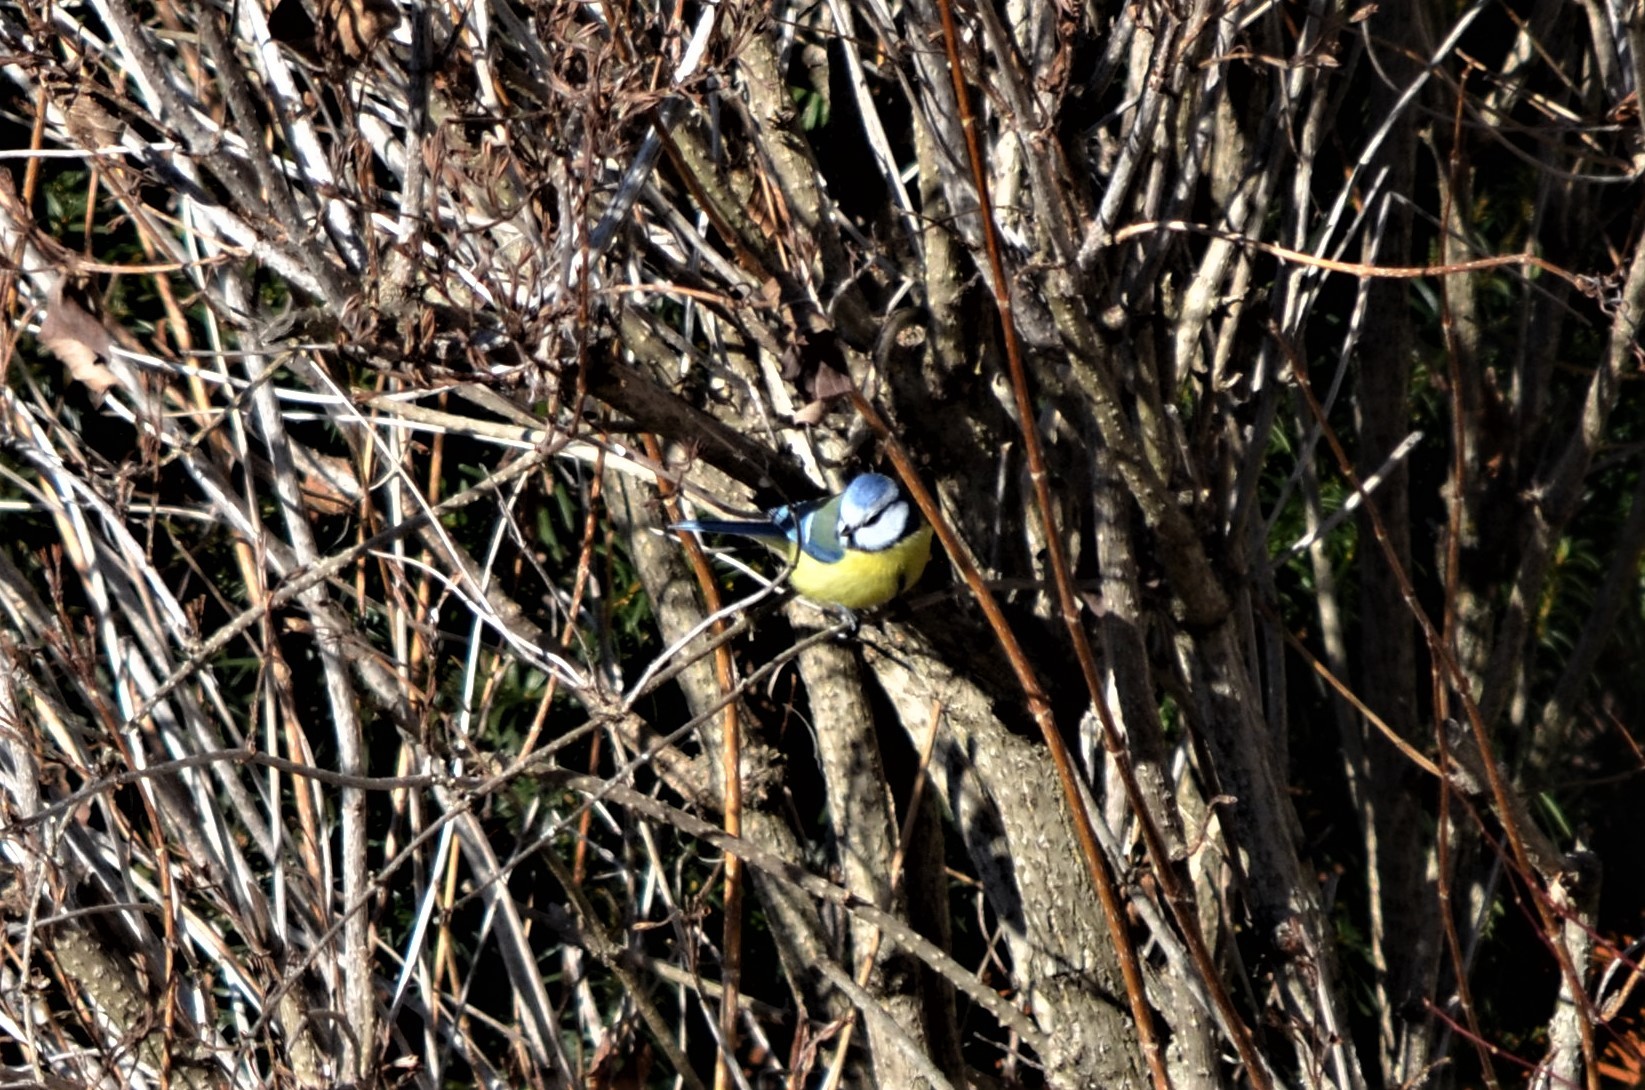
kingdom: Animalia
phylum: Chordata
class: Aves
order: Passeriformes
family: Paridae
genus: Cyanistes
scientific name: Cyanistes caeruleus
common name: Eurasian blue tit
